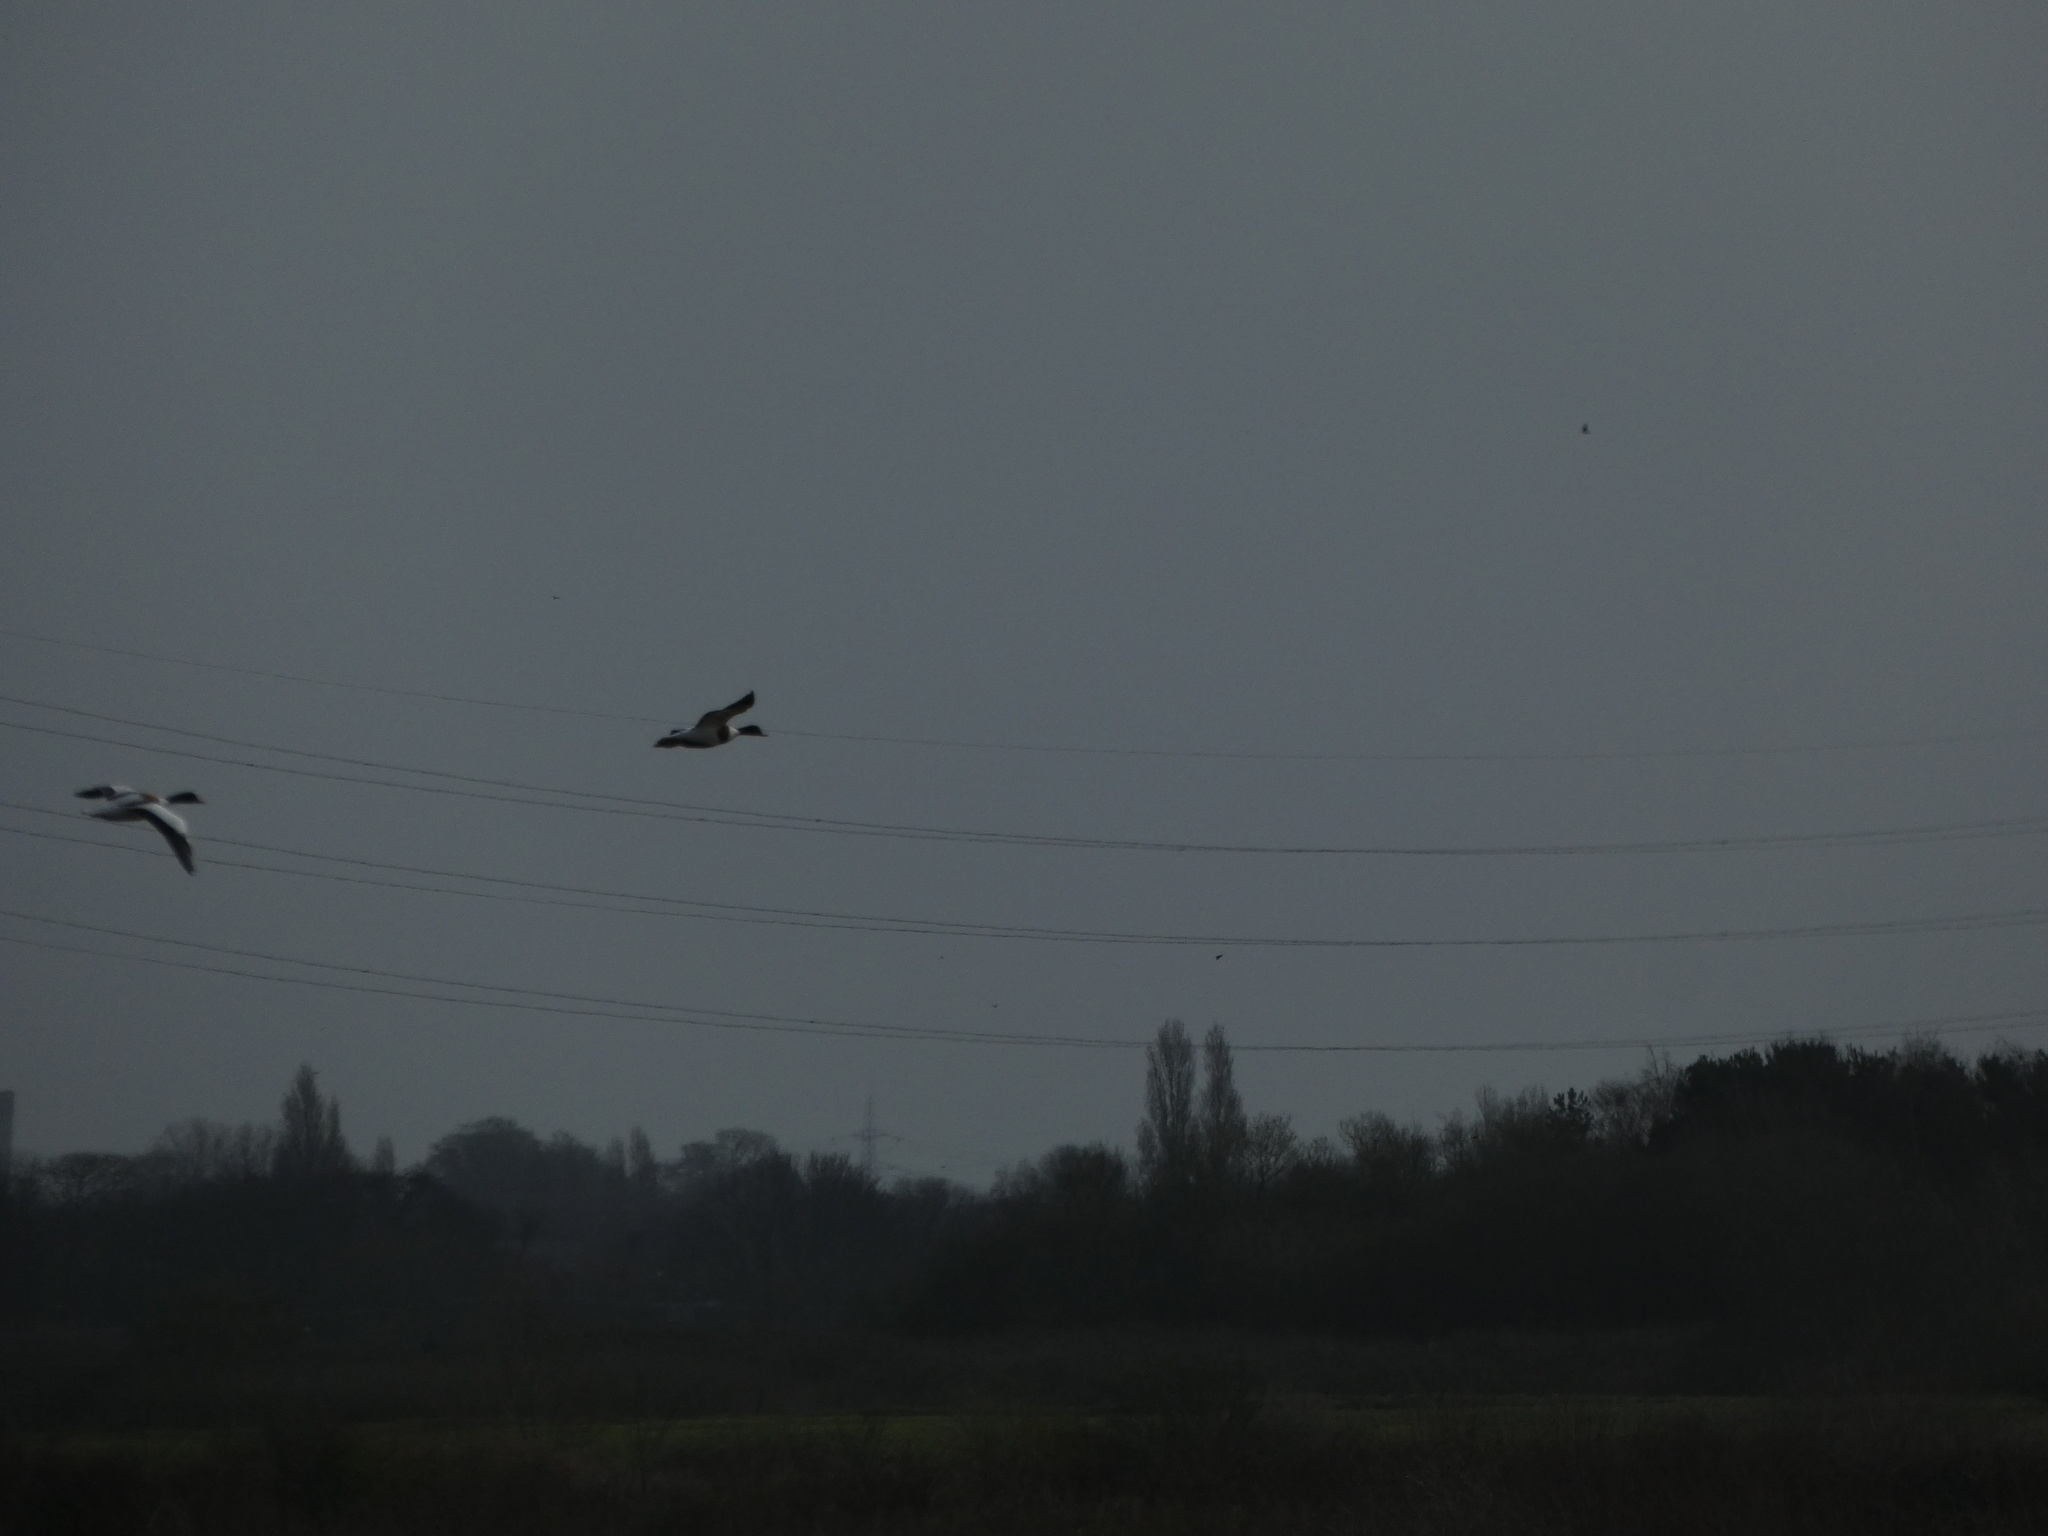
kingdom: Animalia
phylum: Chordata
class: Aves
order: Anseriformes
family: Anatidae
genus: Tadorna
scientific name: Tadorna tadorna
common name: Common shelduck
